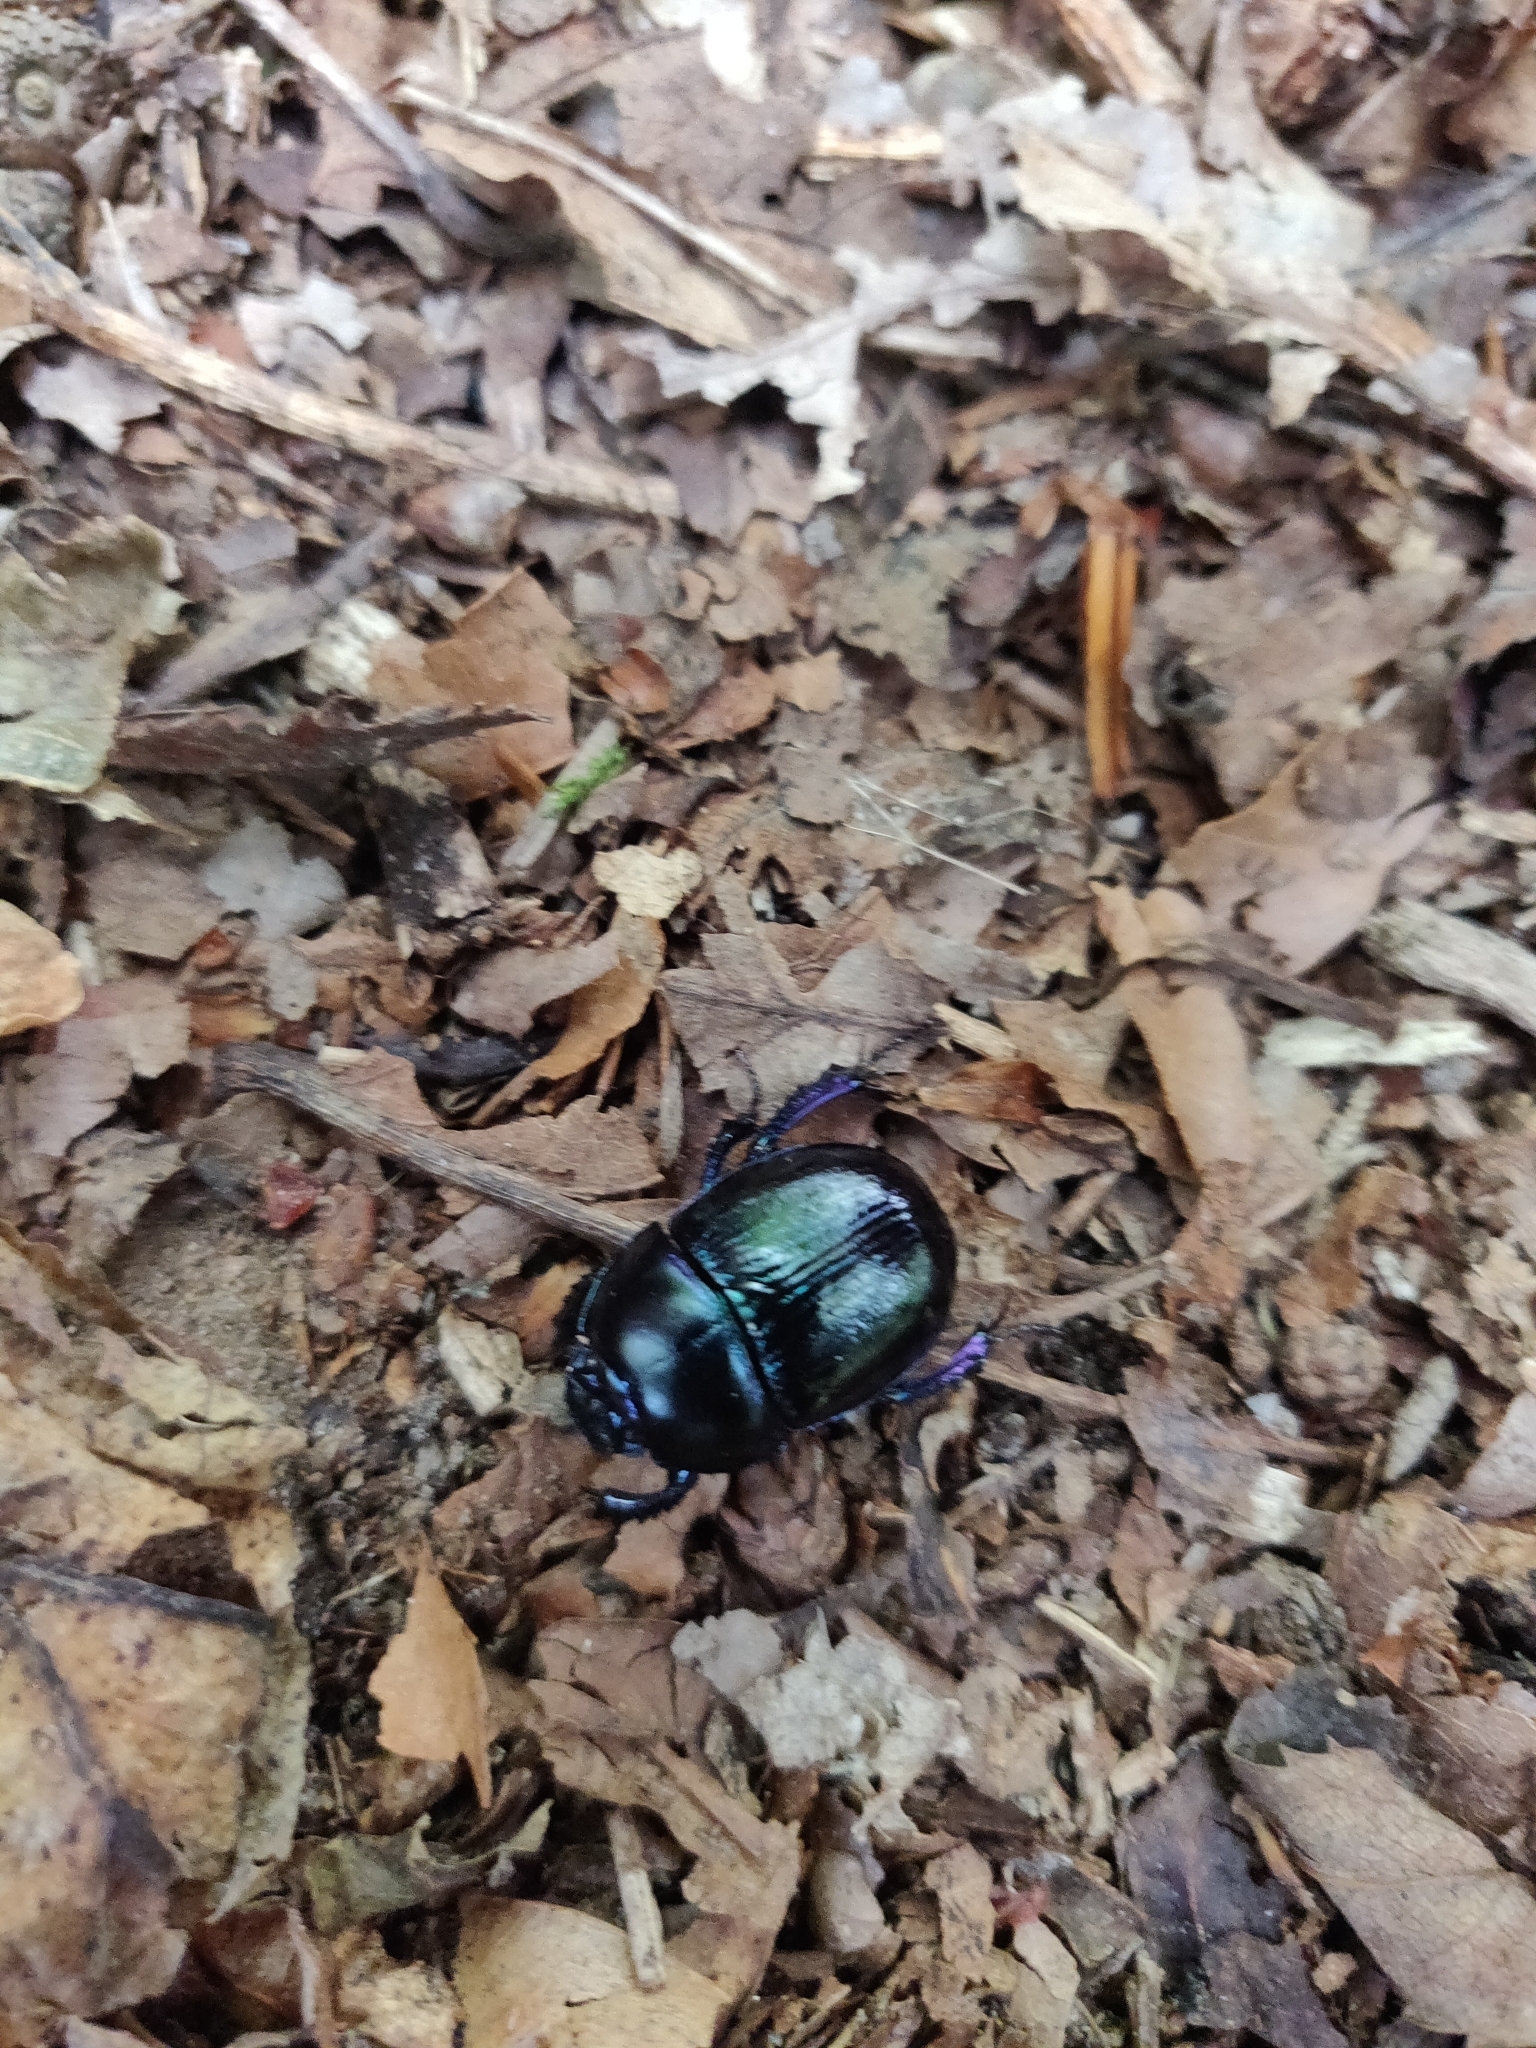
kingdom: Animalia
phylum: Arthropoda
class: Insecta
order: Coleoptera
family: Geotrupidae
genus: Anoplotrupes
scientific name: Anoplotrupes stercorosus
